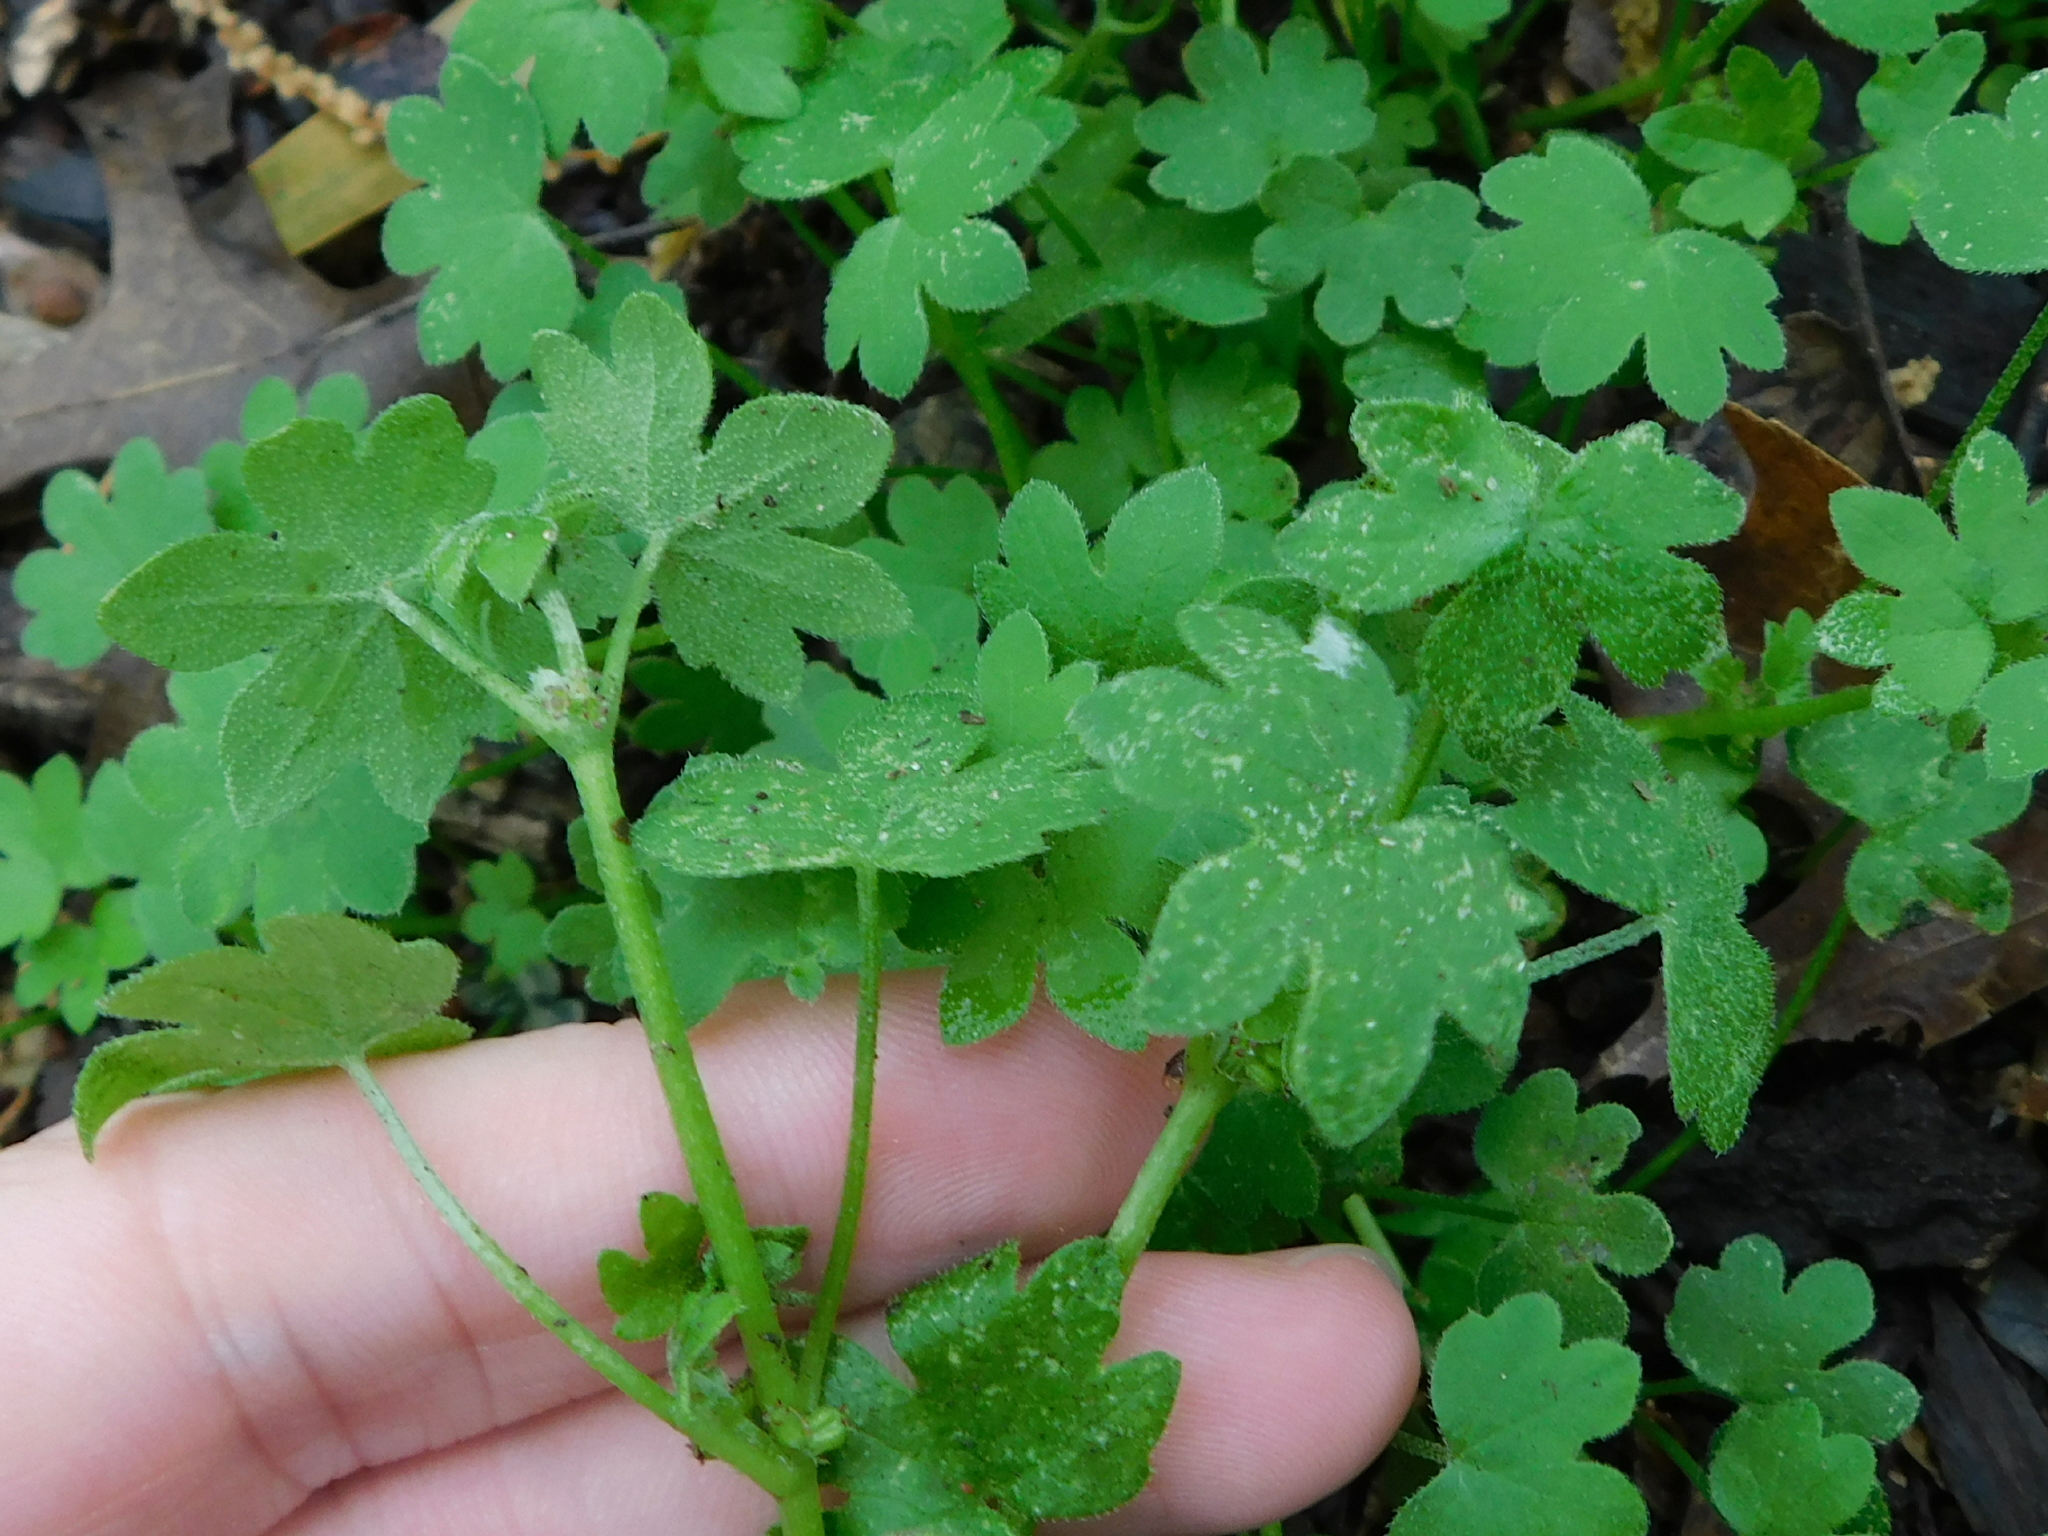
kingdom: Plantae
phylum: Tracheophyta
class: Magnoliopsida
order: Apiales
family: Apiaceae
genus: Bowlesia
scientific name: Bowlesia incana
